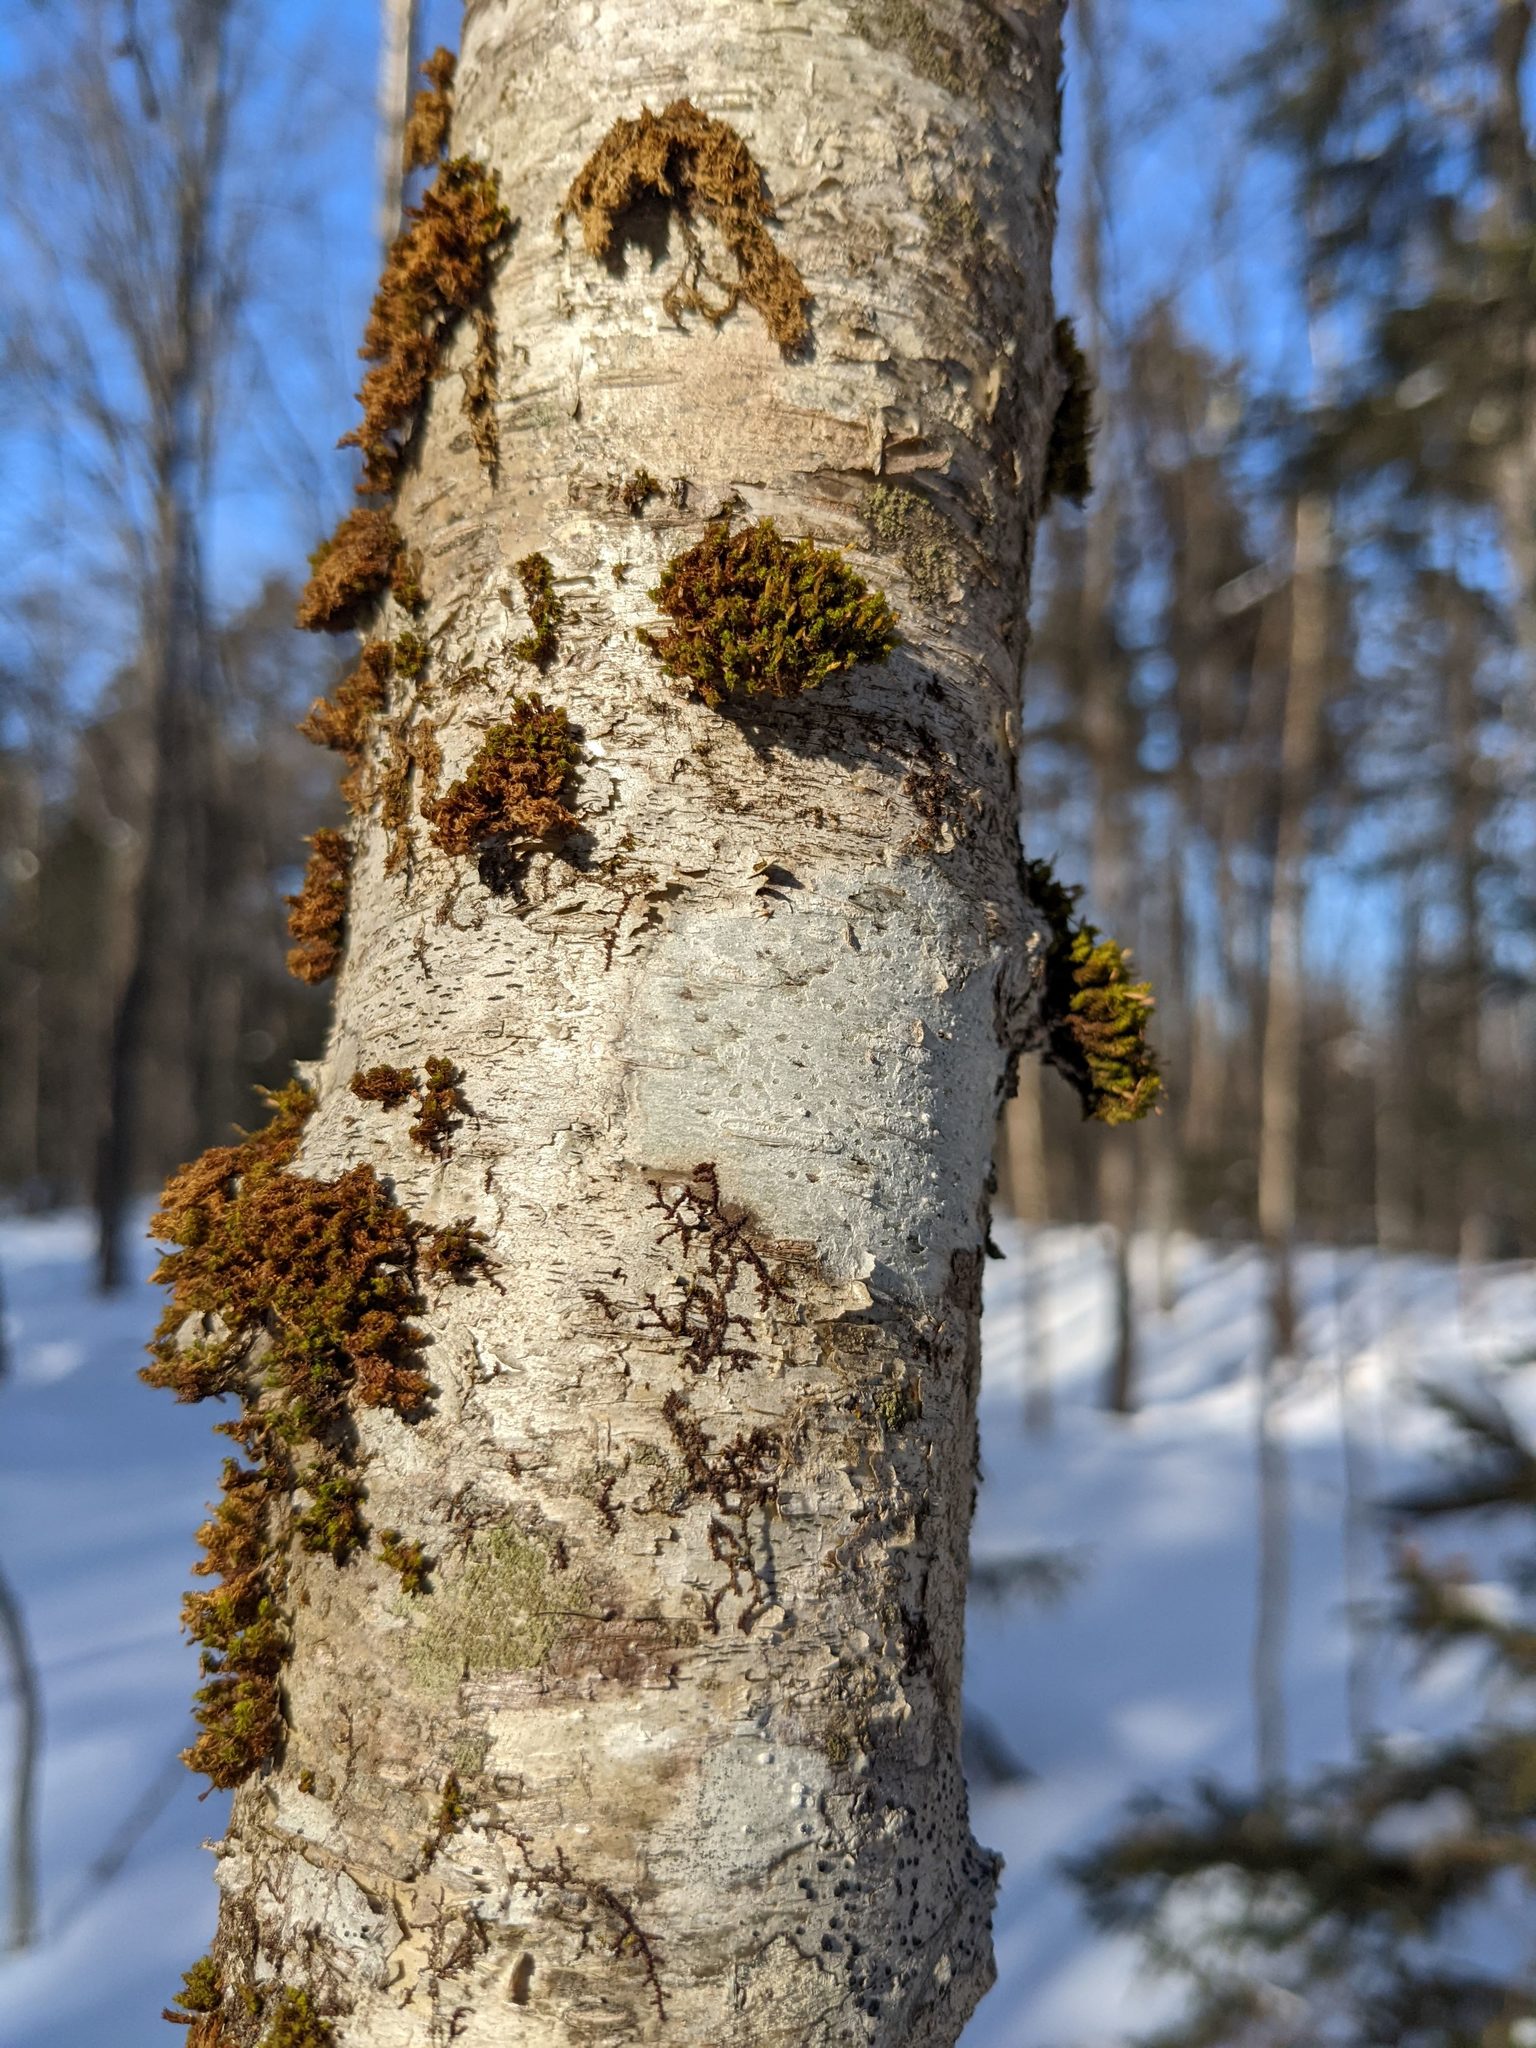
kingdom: Plantae
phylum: Bryophyta
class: Bryopsida
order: Orthotrichales
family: Orthotrichaceae
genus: Ulota
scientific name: Ulota crispa
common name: Crisped pincushion moss
